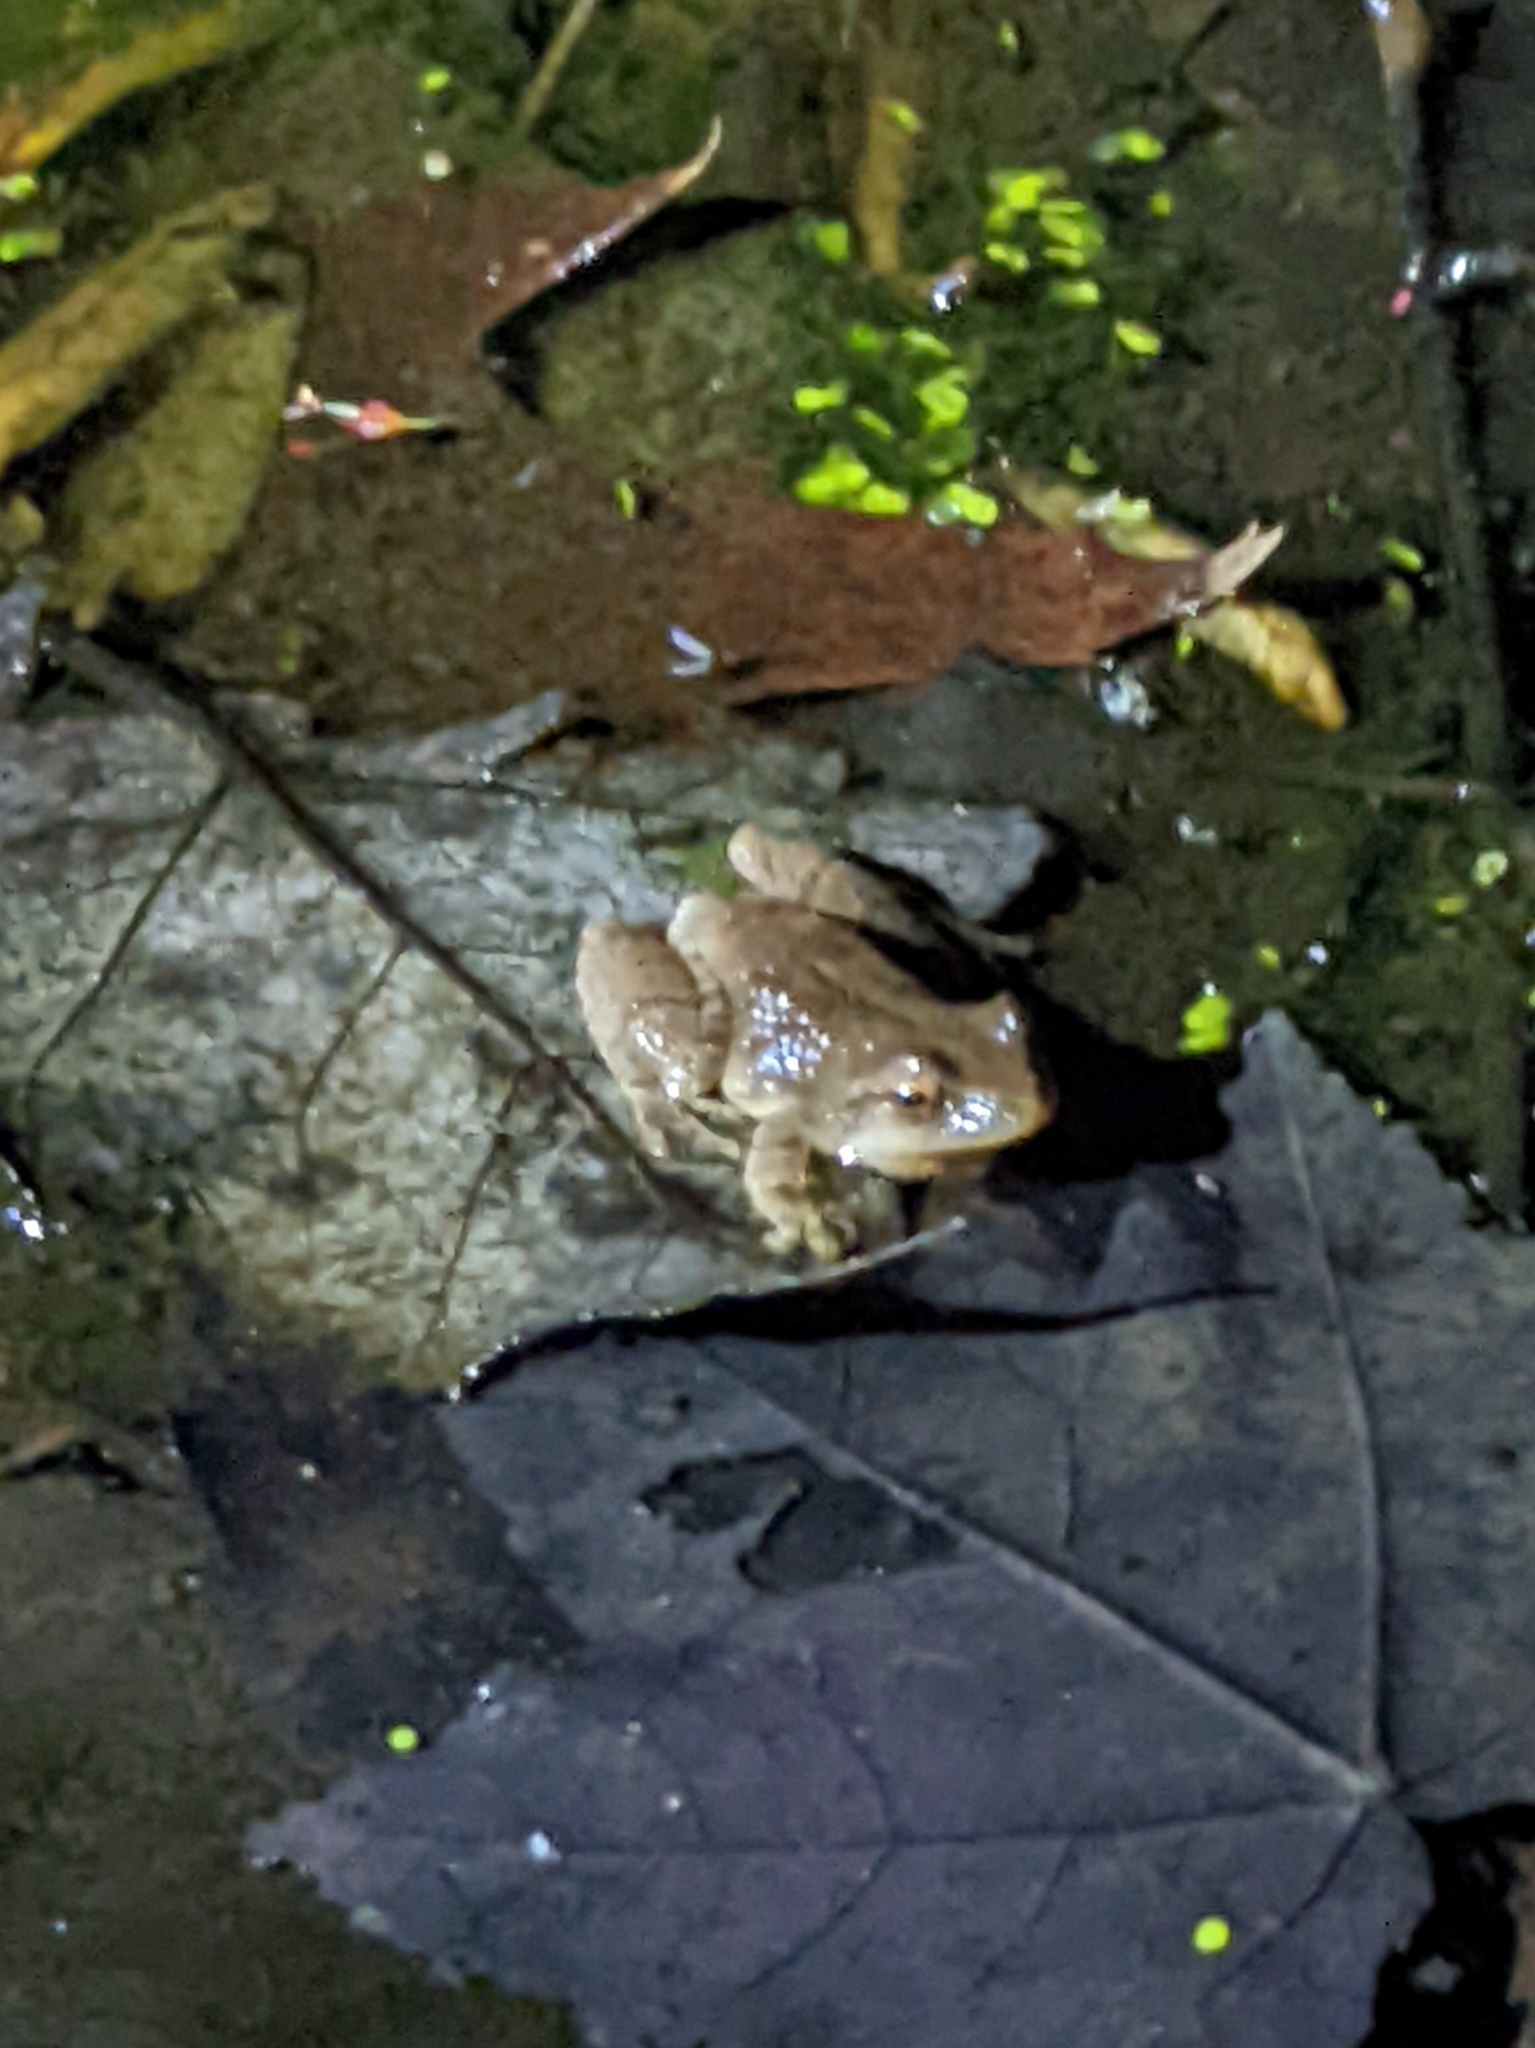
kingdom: Animalia
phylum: Chordata
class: Amphibia
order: Anura
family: Hylidae
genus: Pseudacris
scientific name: Pseudacris crucifer
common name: Spring peeper
